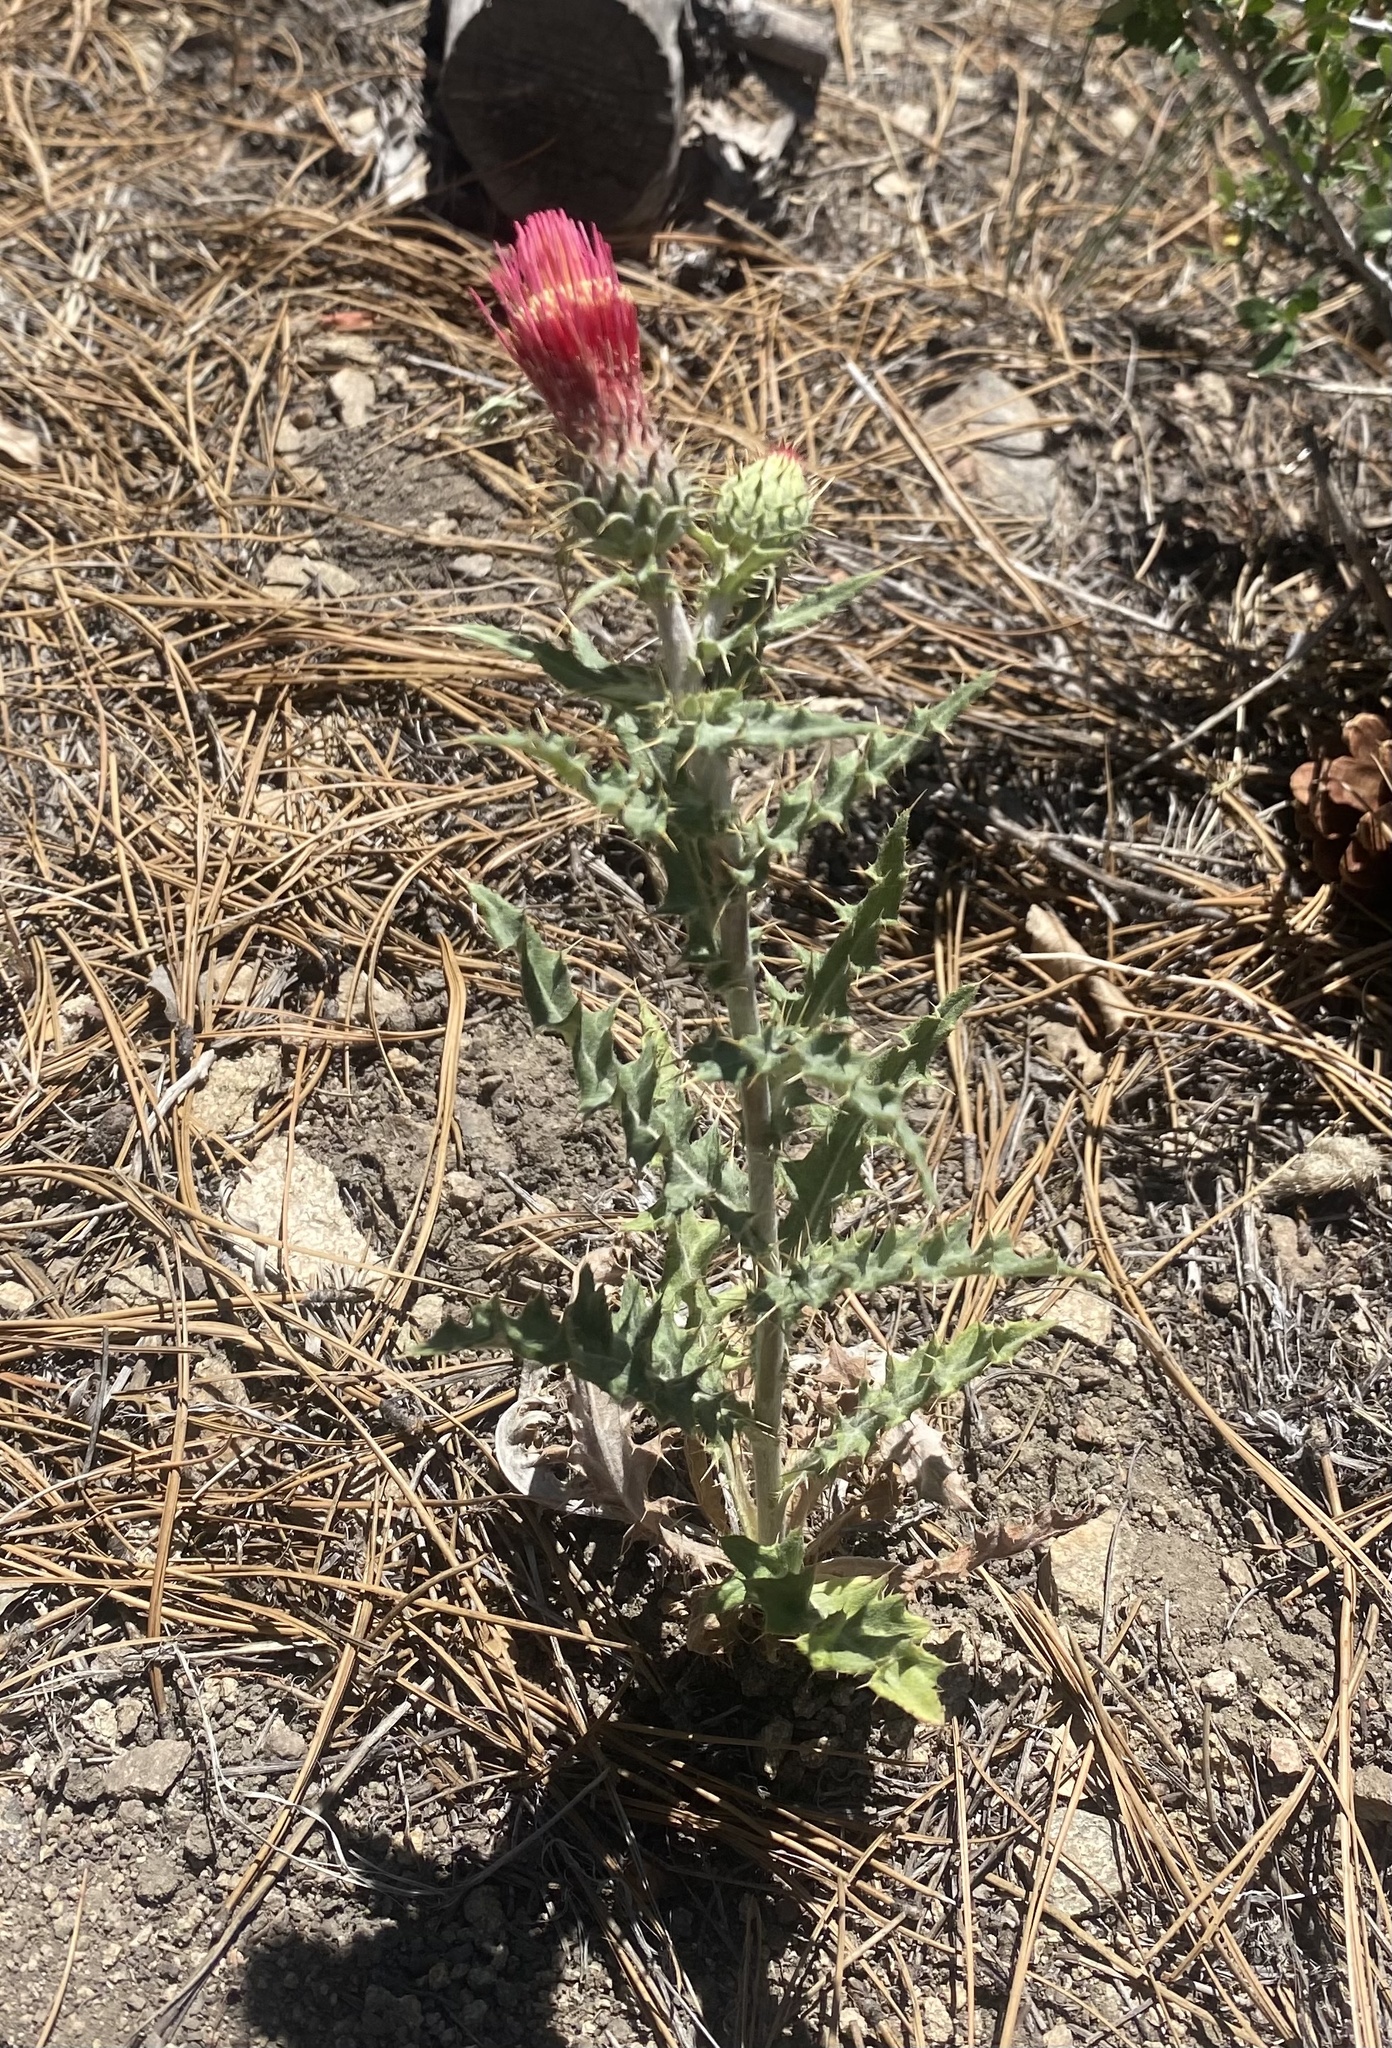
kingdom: Plantae
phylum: Tracheophyta
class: Magnoliopsida
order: Asterales
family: Asteraceae
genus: Cirsium
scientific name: Cirsium arizonicum
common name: Arizona thistle
